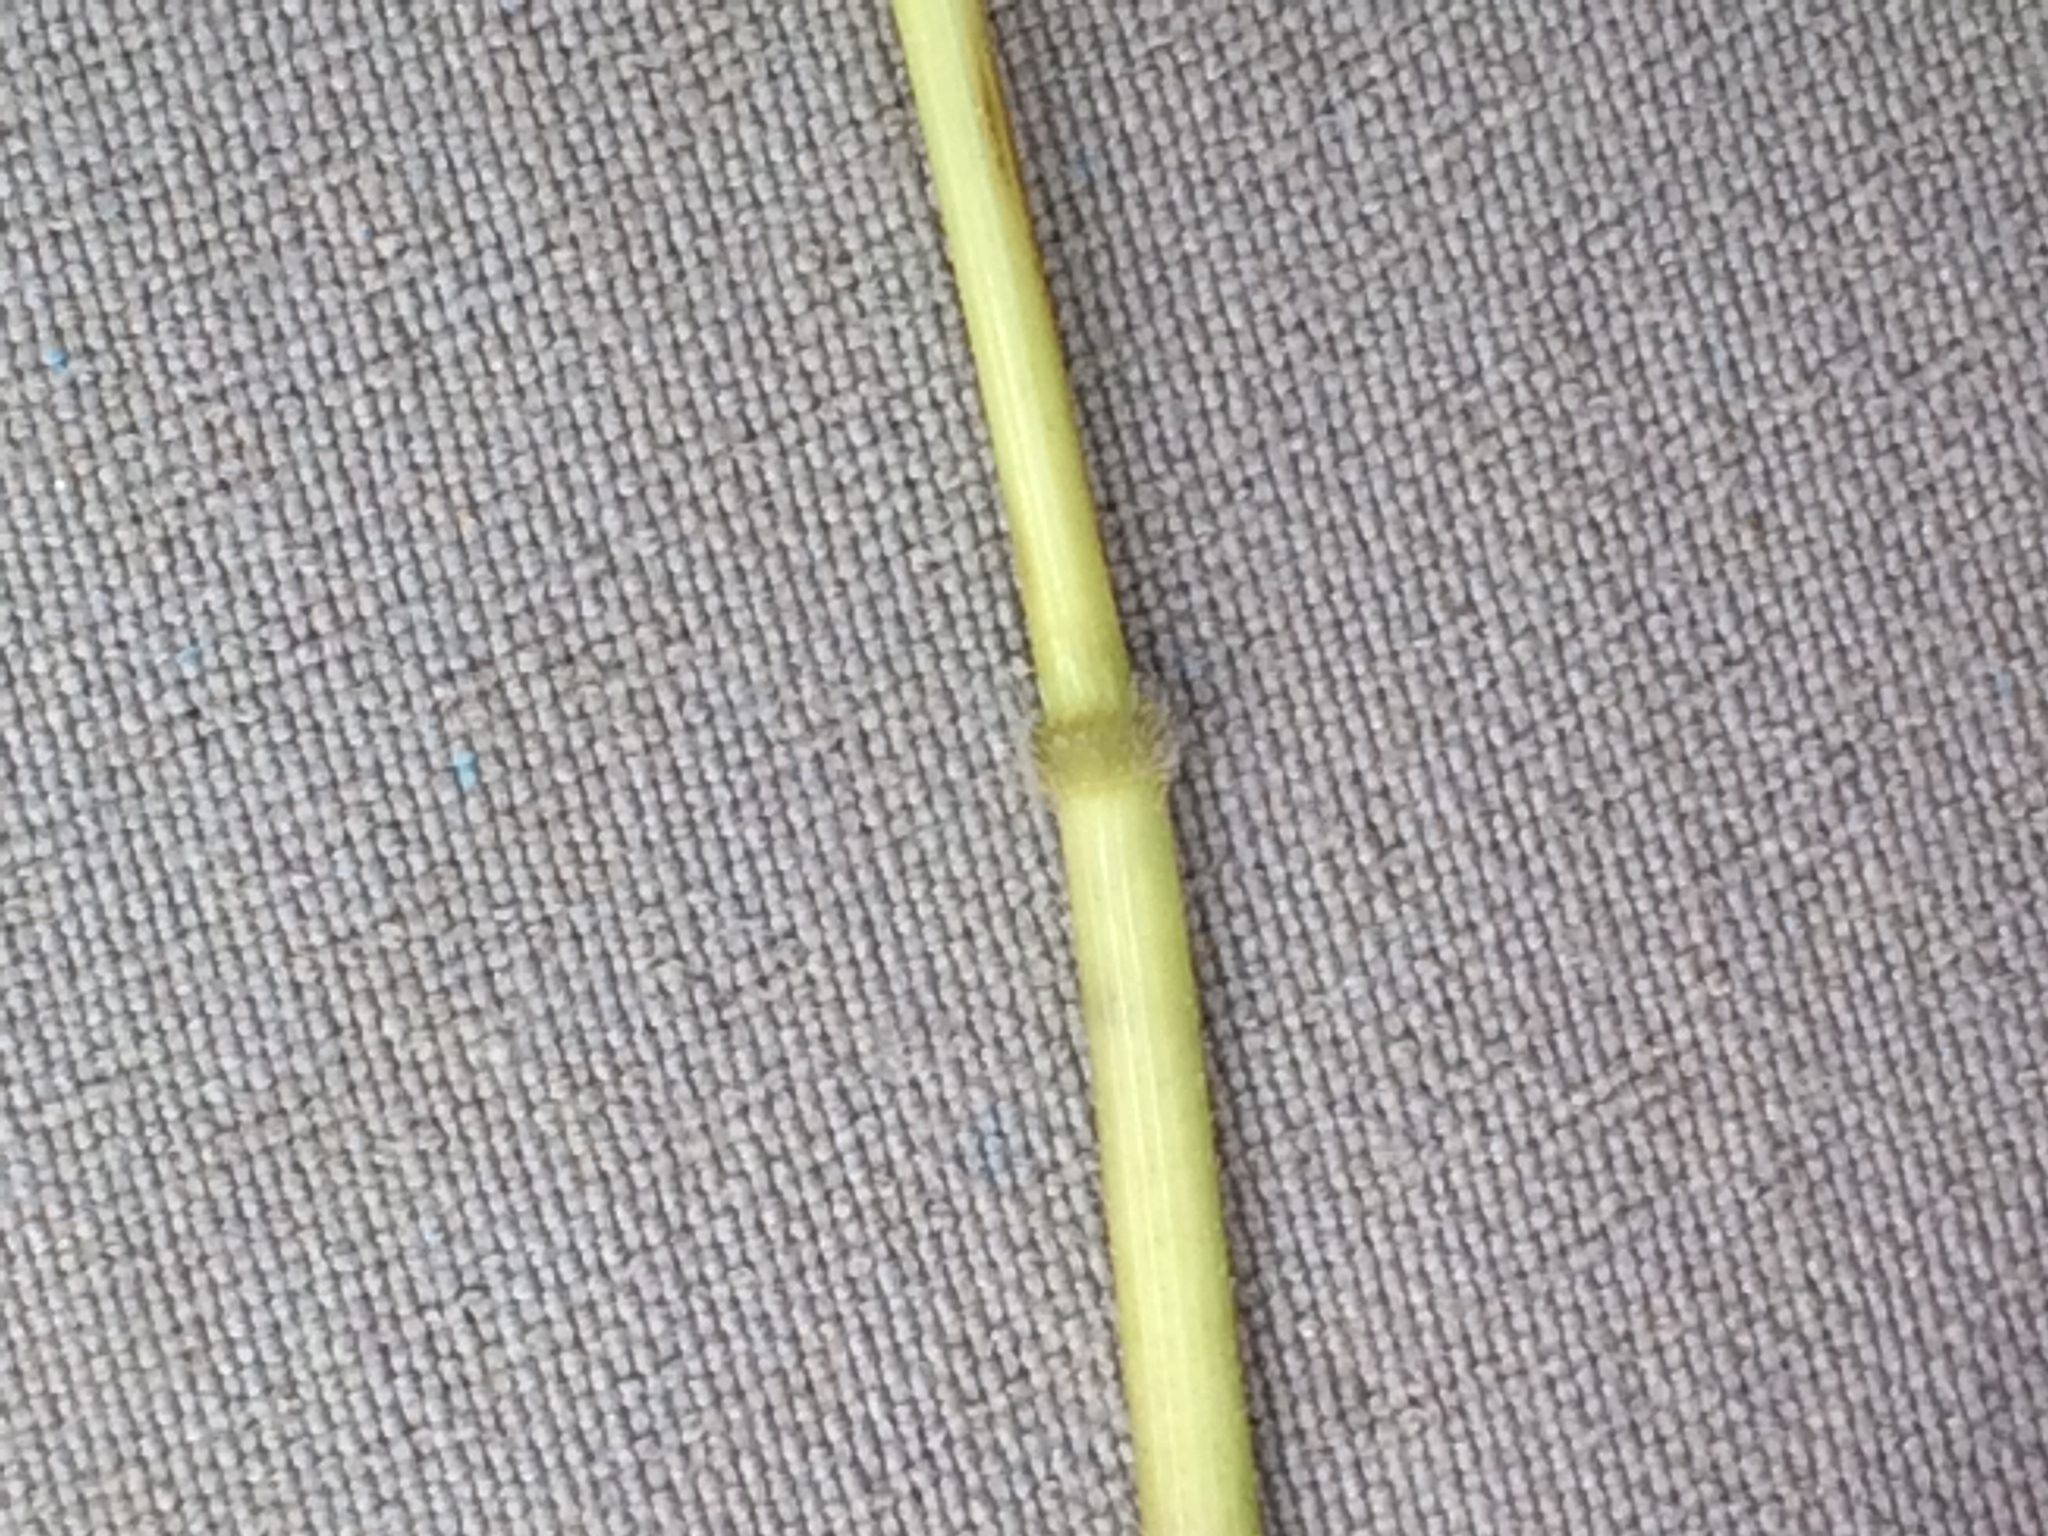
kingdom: Plantae
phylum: Tracheophyta
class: Liliopsida
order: Poales
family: Poaceae
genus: Leersia
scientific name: Leersia oryzoides
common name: Cut-grass
